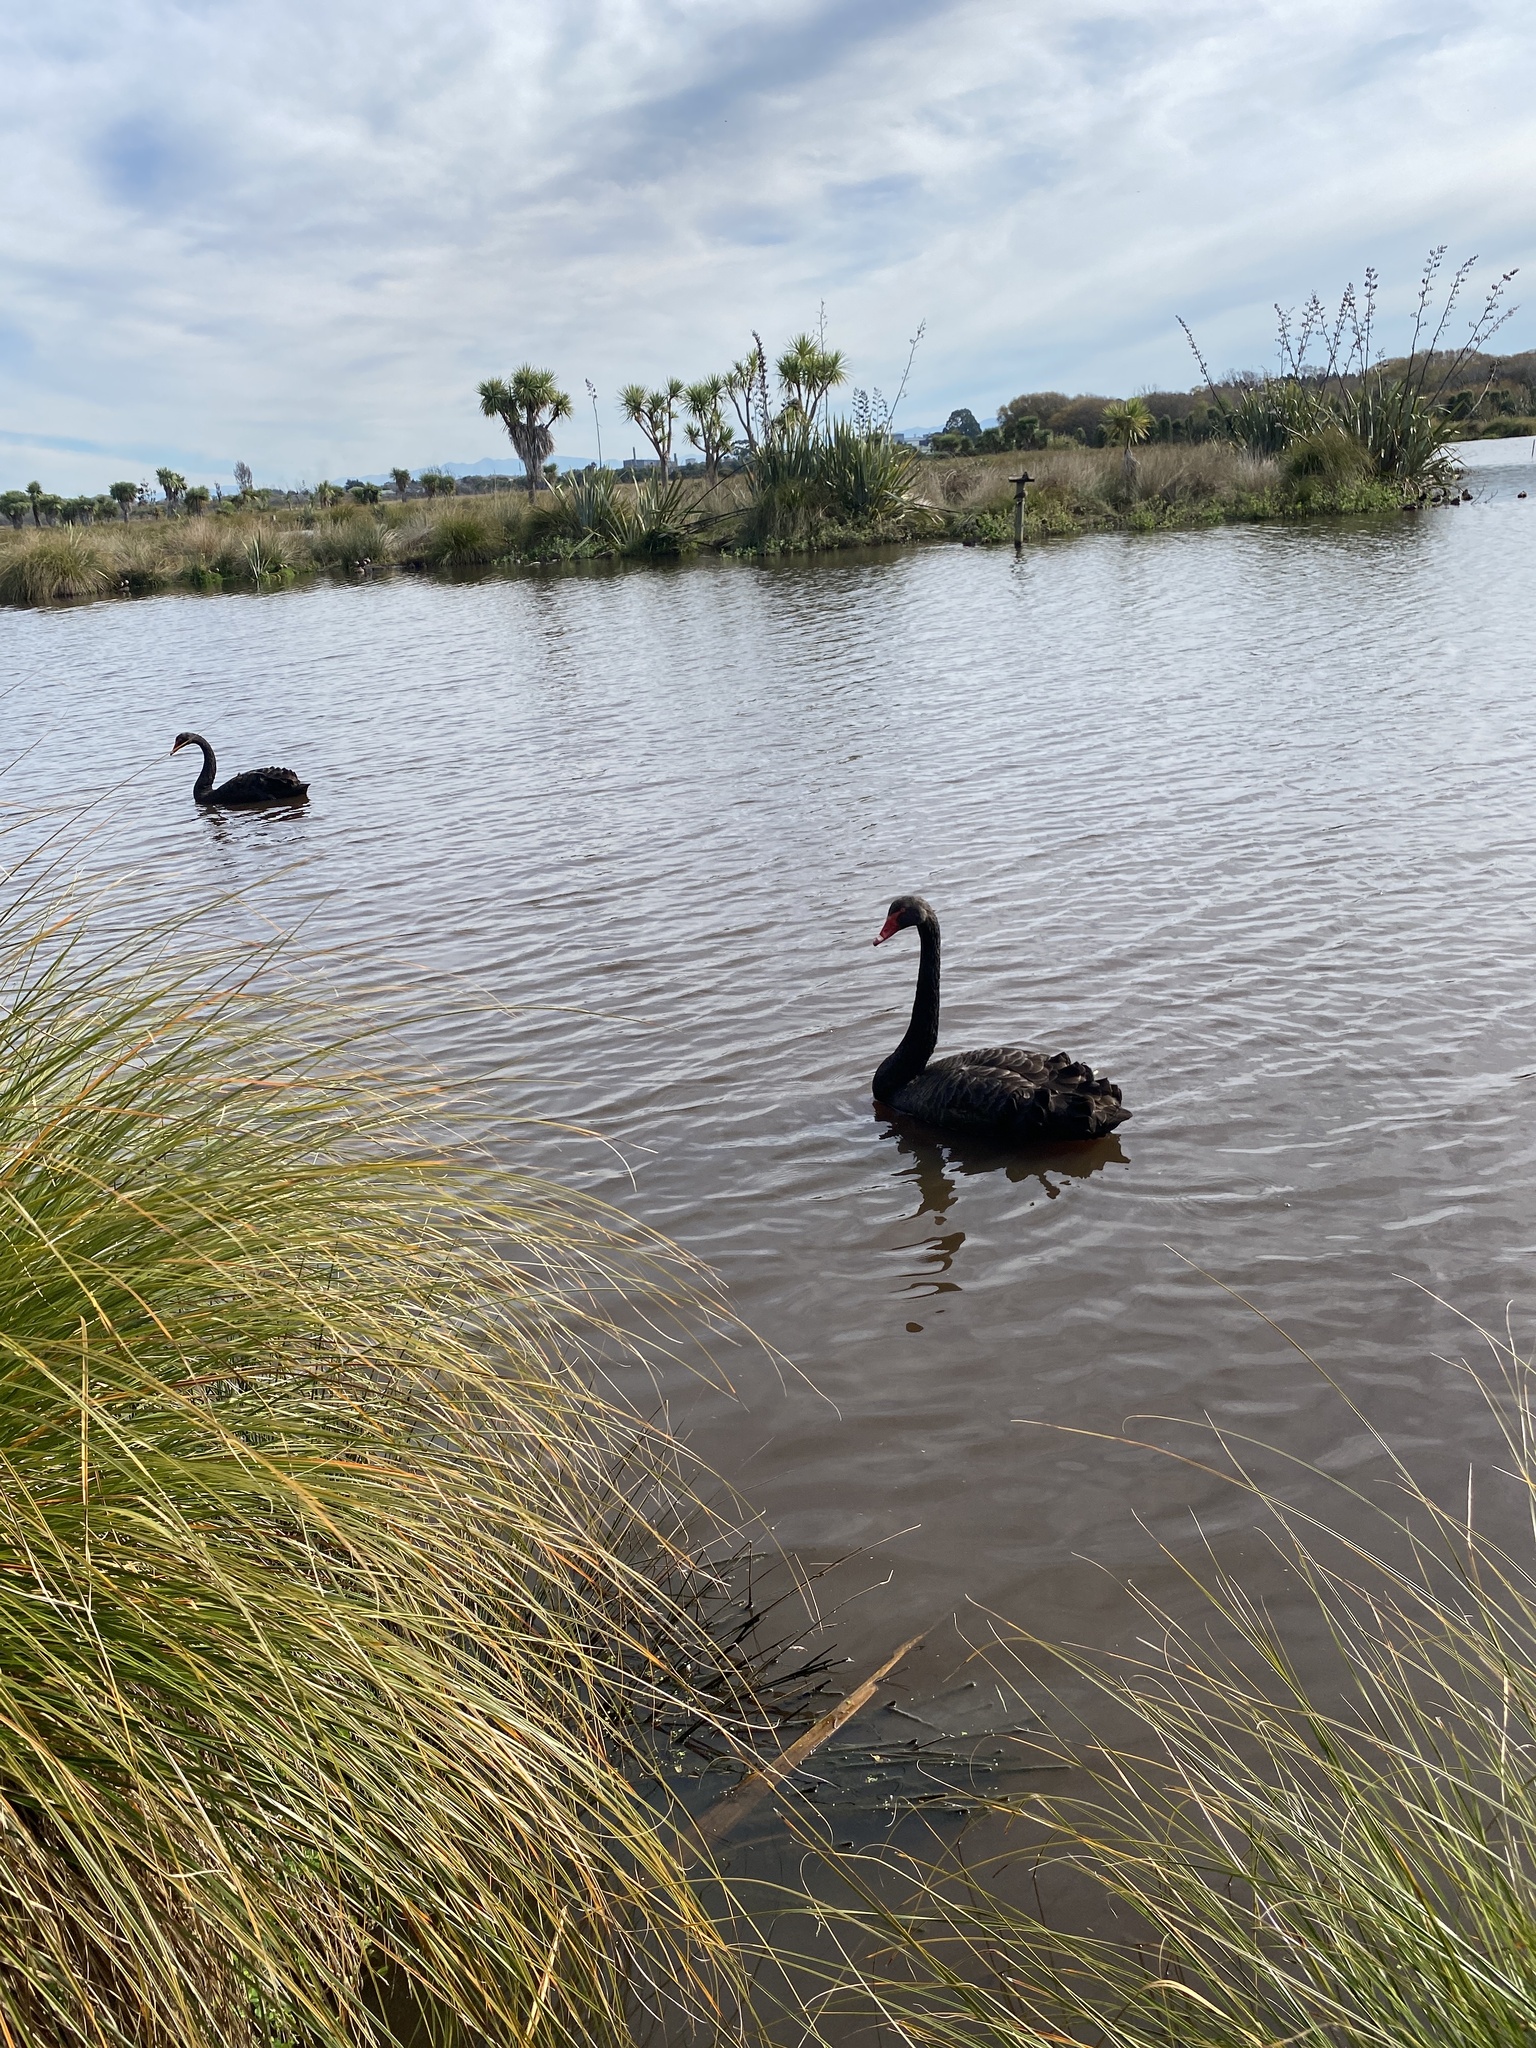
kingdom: Animalia
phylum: Chordata
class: Aves
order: Anseriformes
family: Anatidae
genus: Cygnus
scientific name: Cygnus atratus
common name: Black swan
